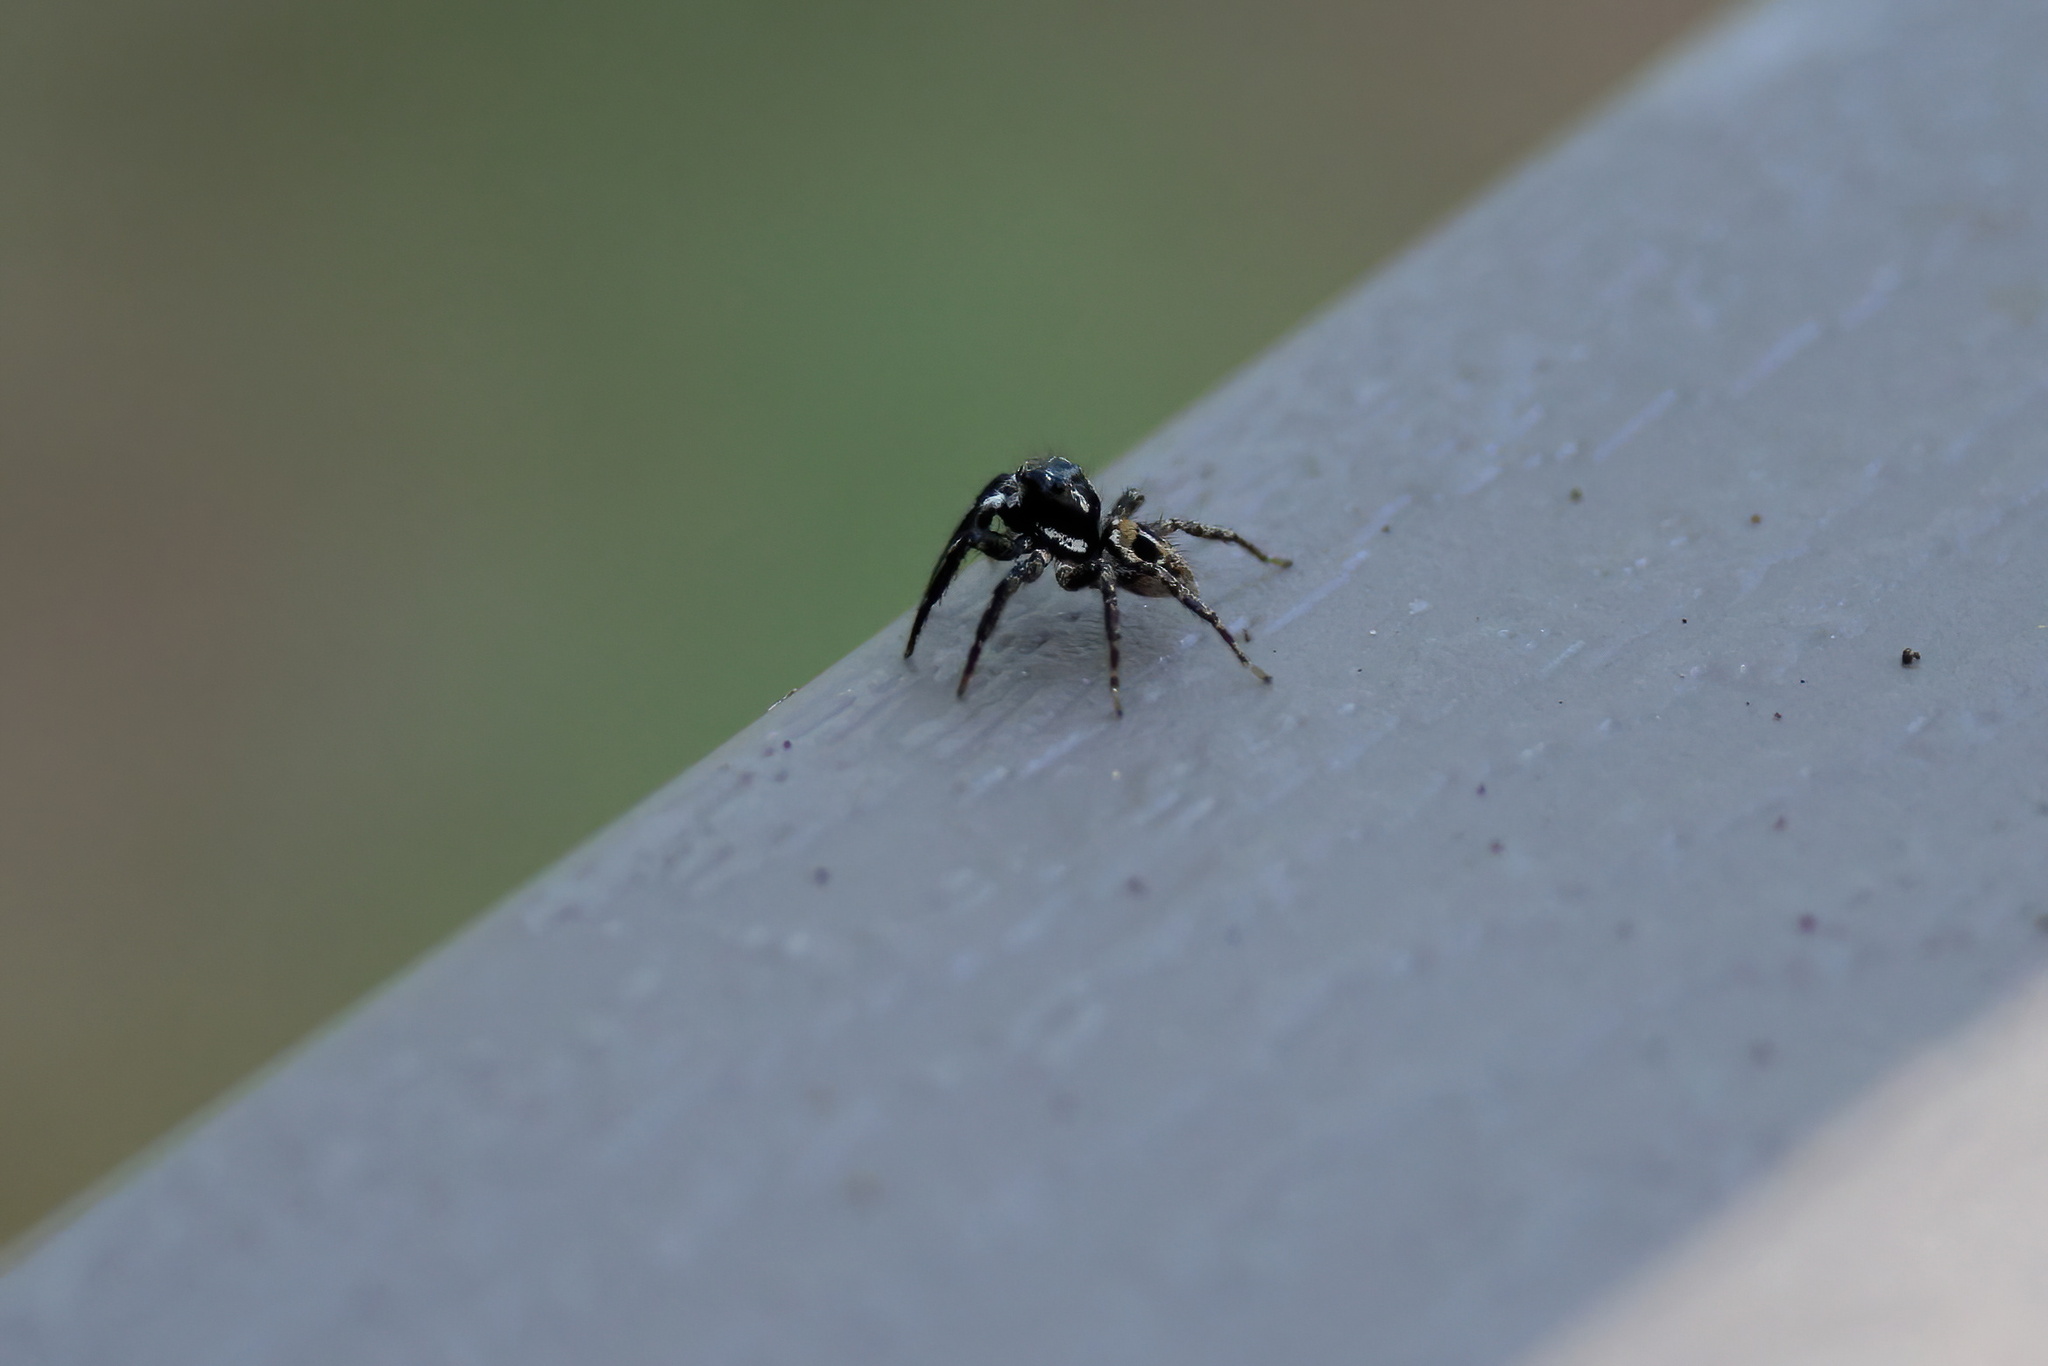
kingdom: Animalia
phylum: Arthropoda
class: Arachnida
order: Araneae
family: Salticidae
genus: Anasaitis
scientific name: Anasaitis canosa
